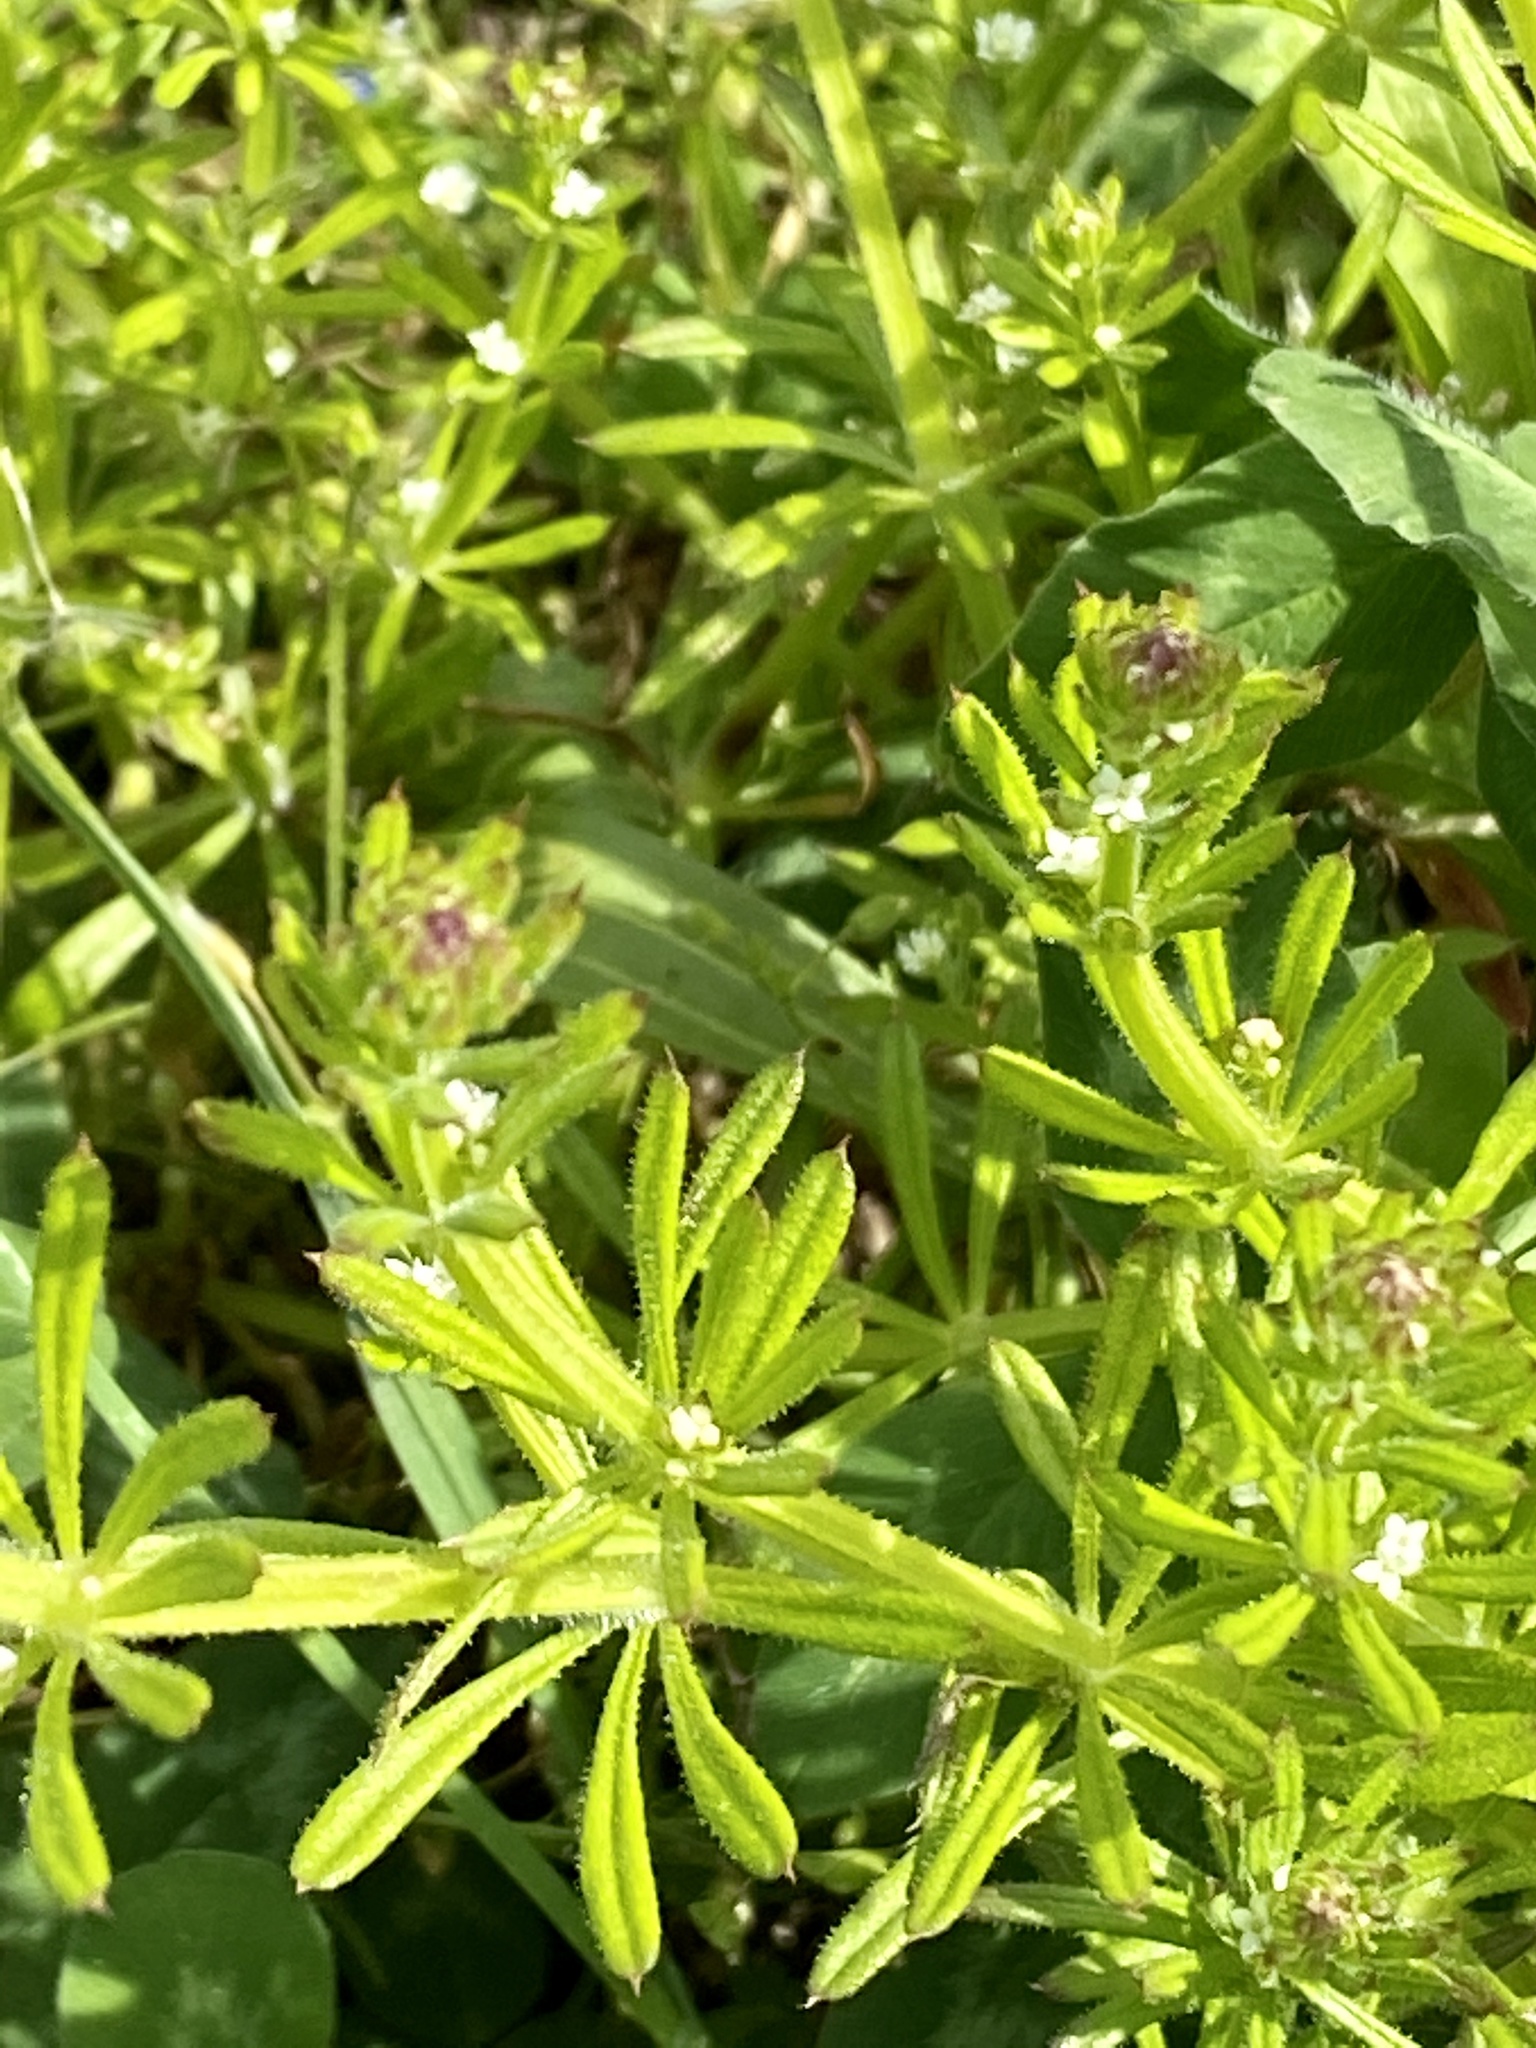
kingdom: Plantae
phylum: Tracheophyta
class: Magnoliopsida
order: Gentianales
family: Rubiaceae
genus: Galium
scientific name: Galium aparine
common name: Cleavers
